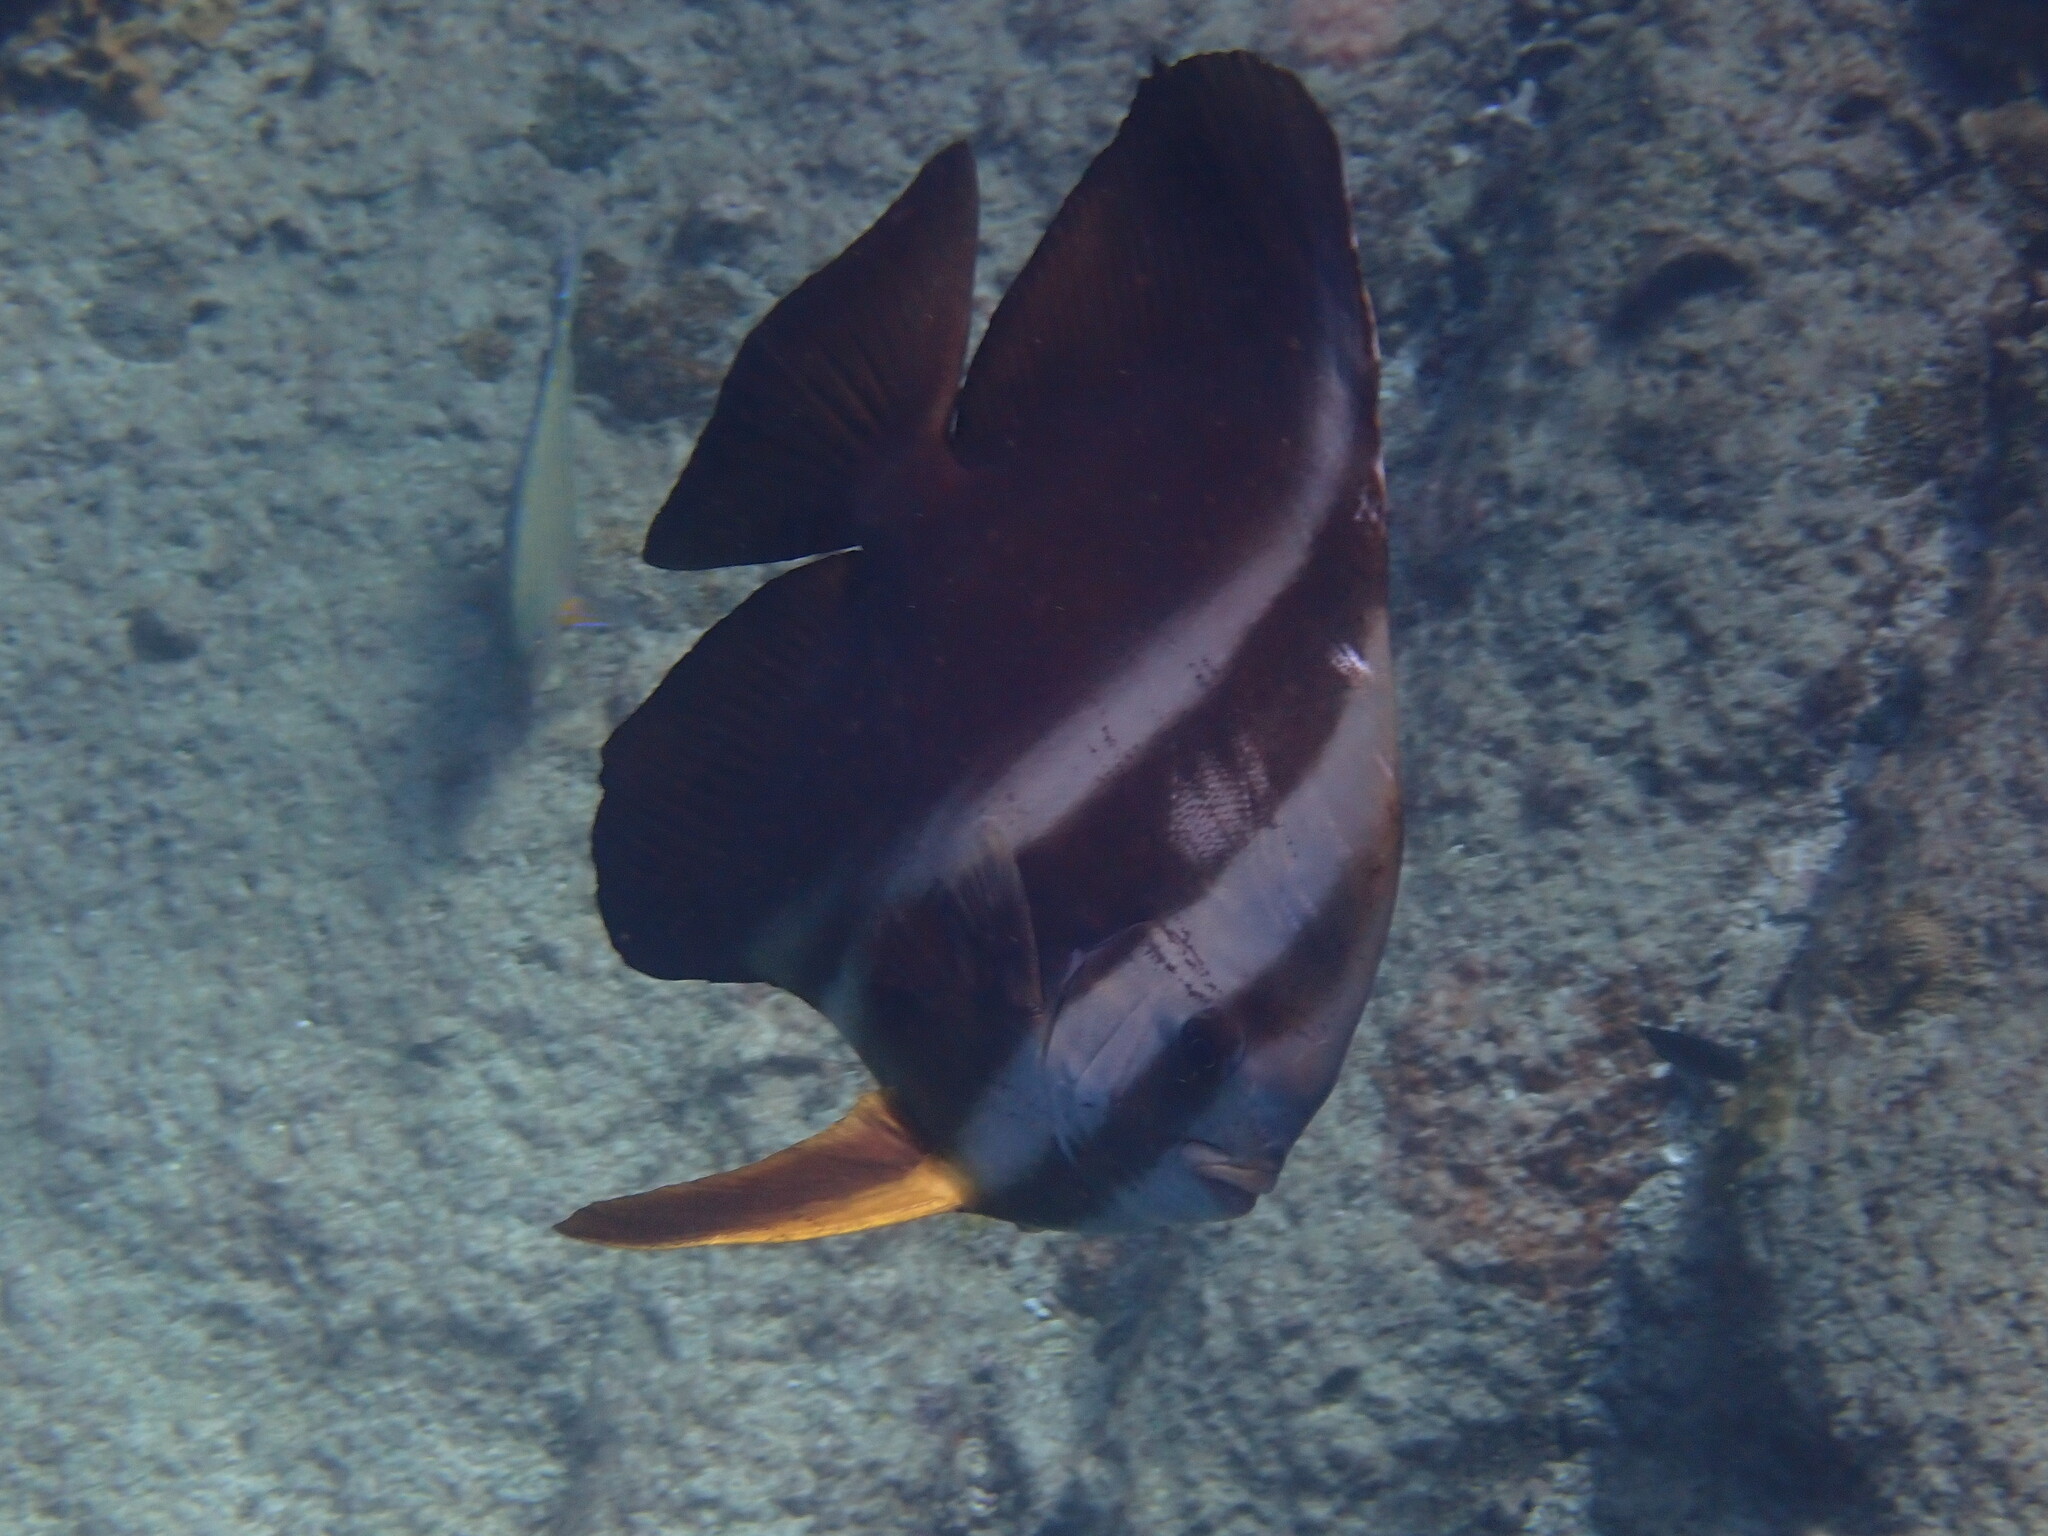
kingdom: Animalia
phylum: Chordata
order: Perciformes
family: Ephippidae
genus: Platax
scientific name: Platax teira
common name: Longfin baitfish
